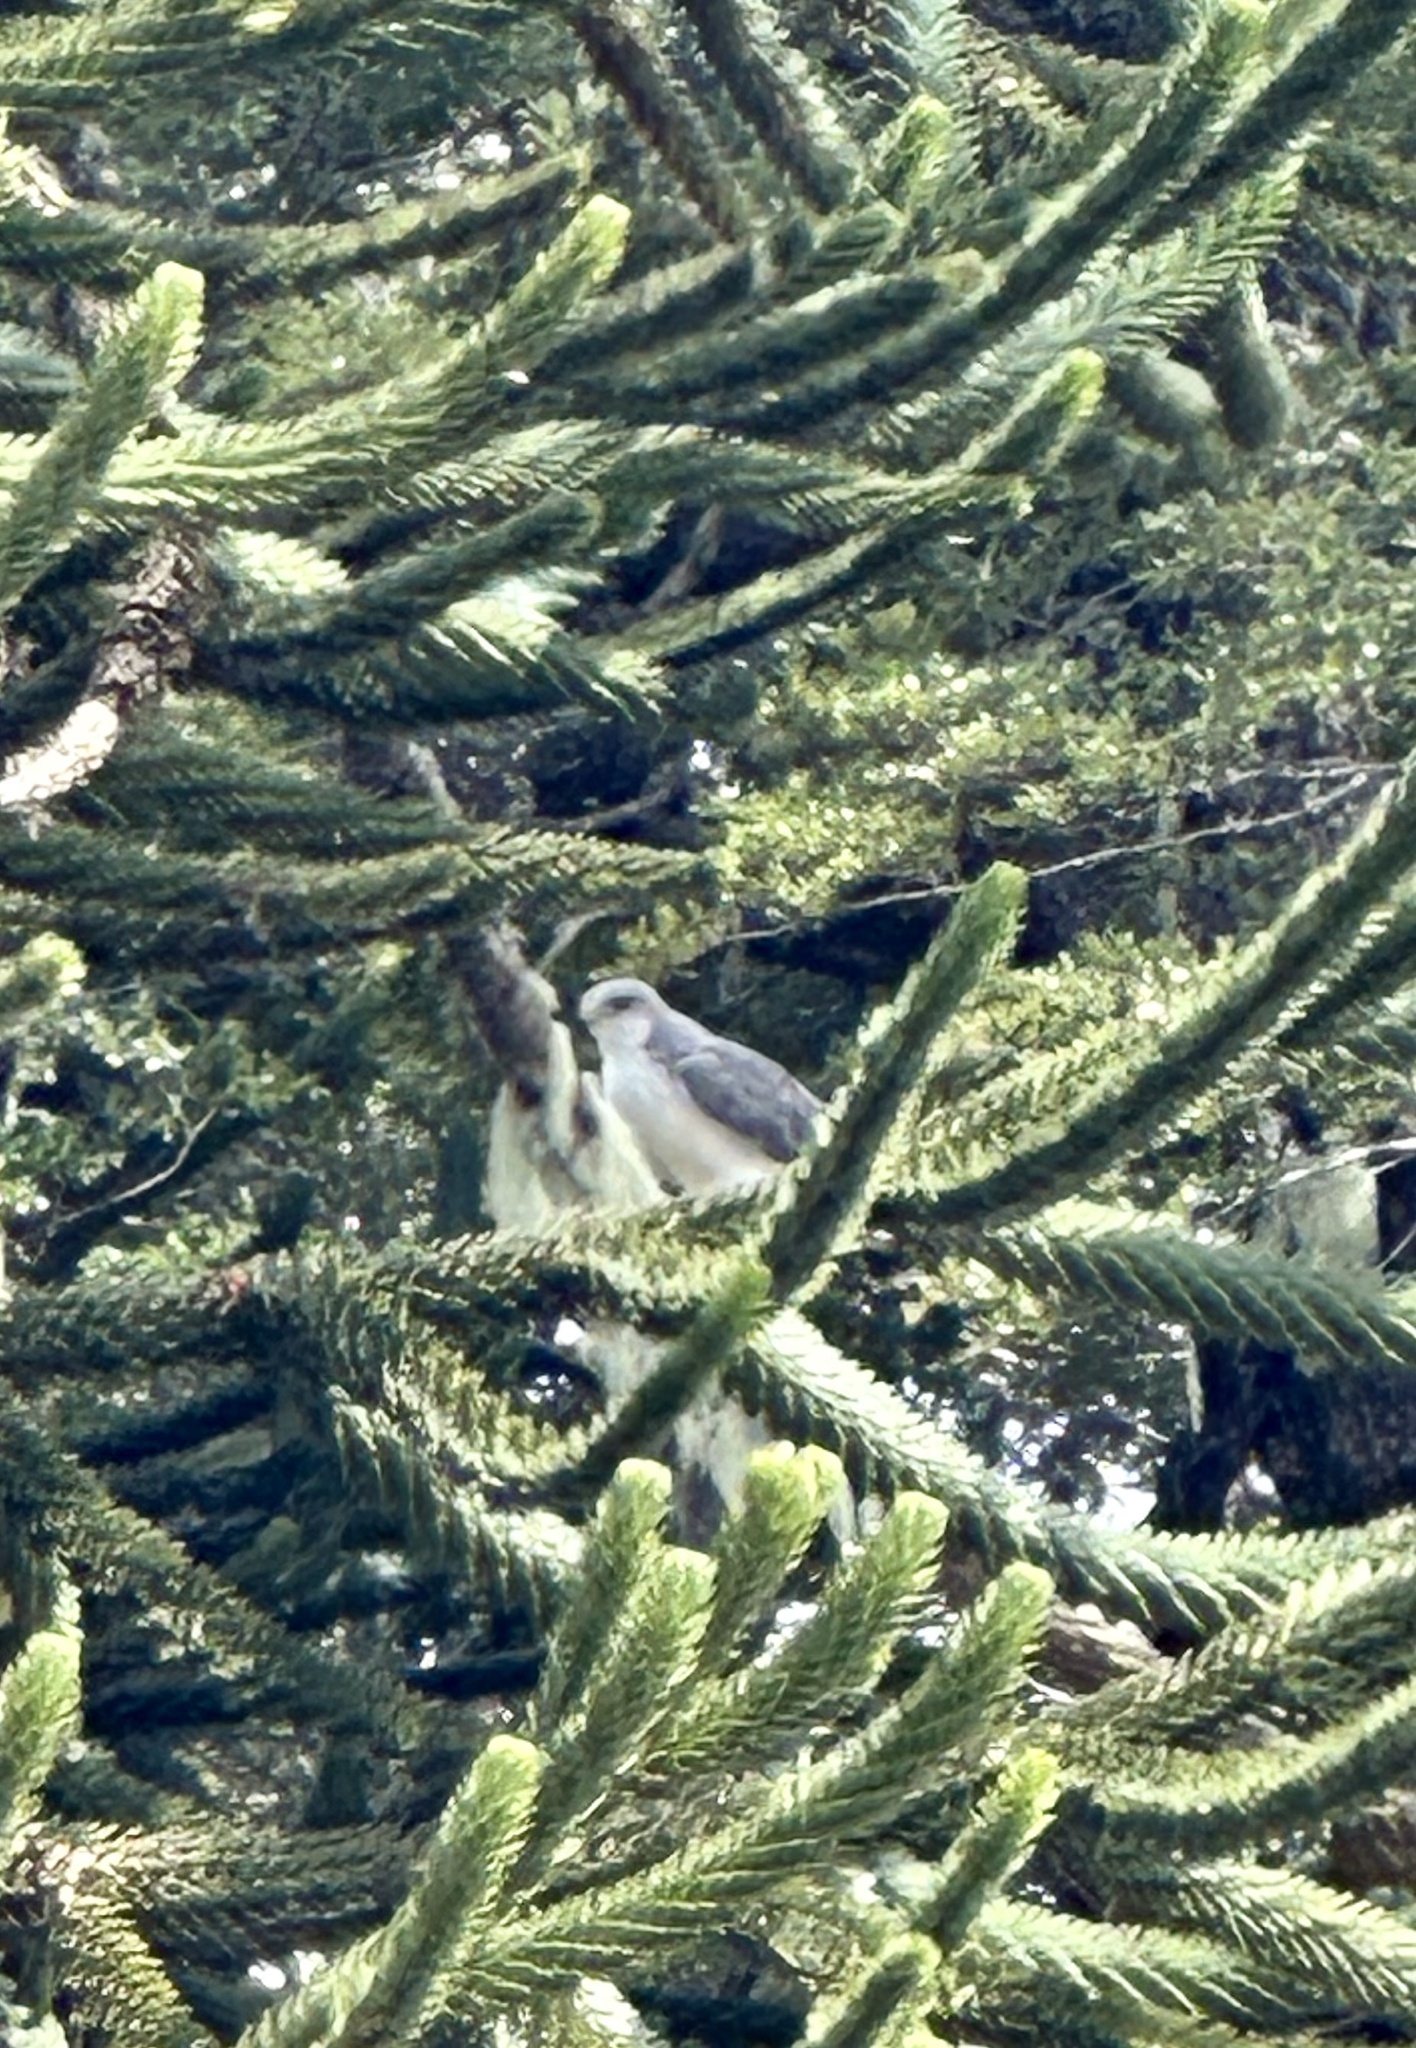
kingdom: Animalia
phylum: Chordata
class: Aves
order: Accipitriformes
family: Accipitridae
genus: Buteo
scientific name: Buteo polyosoma
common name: Variable hawk
